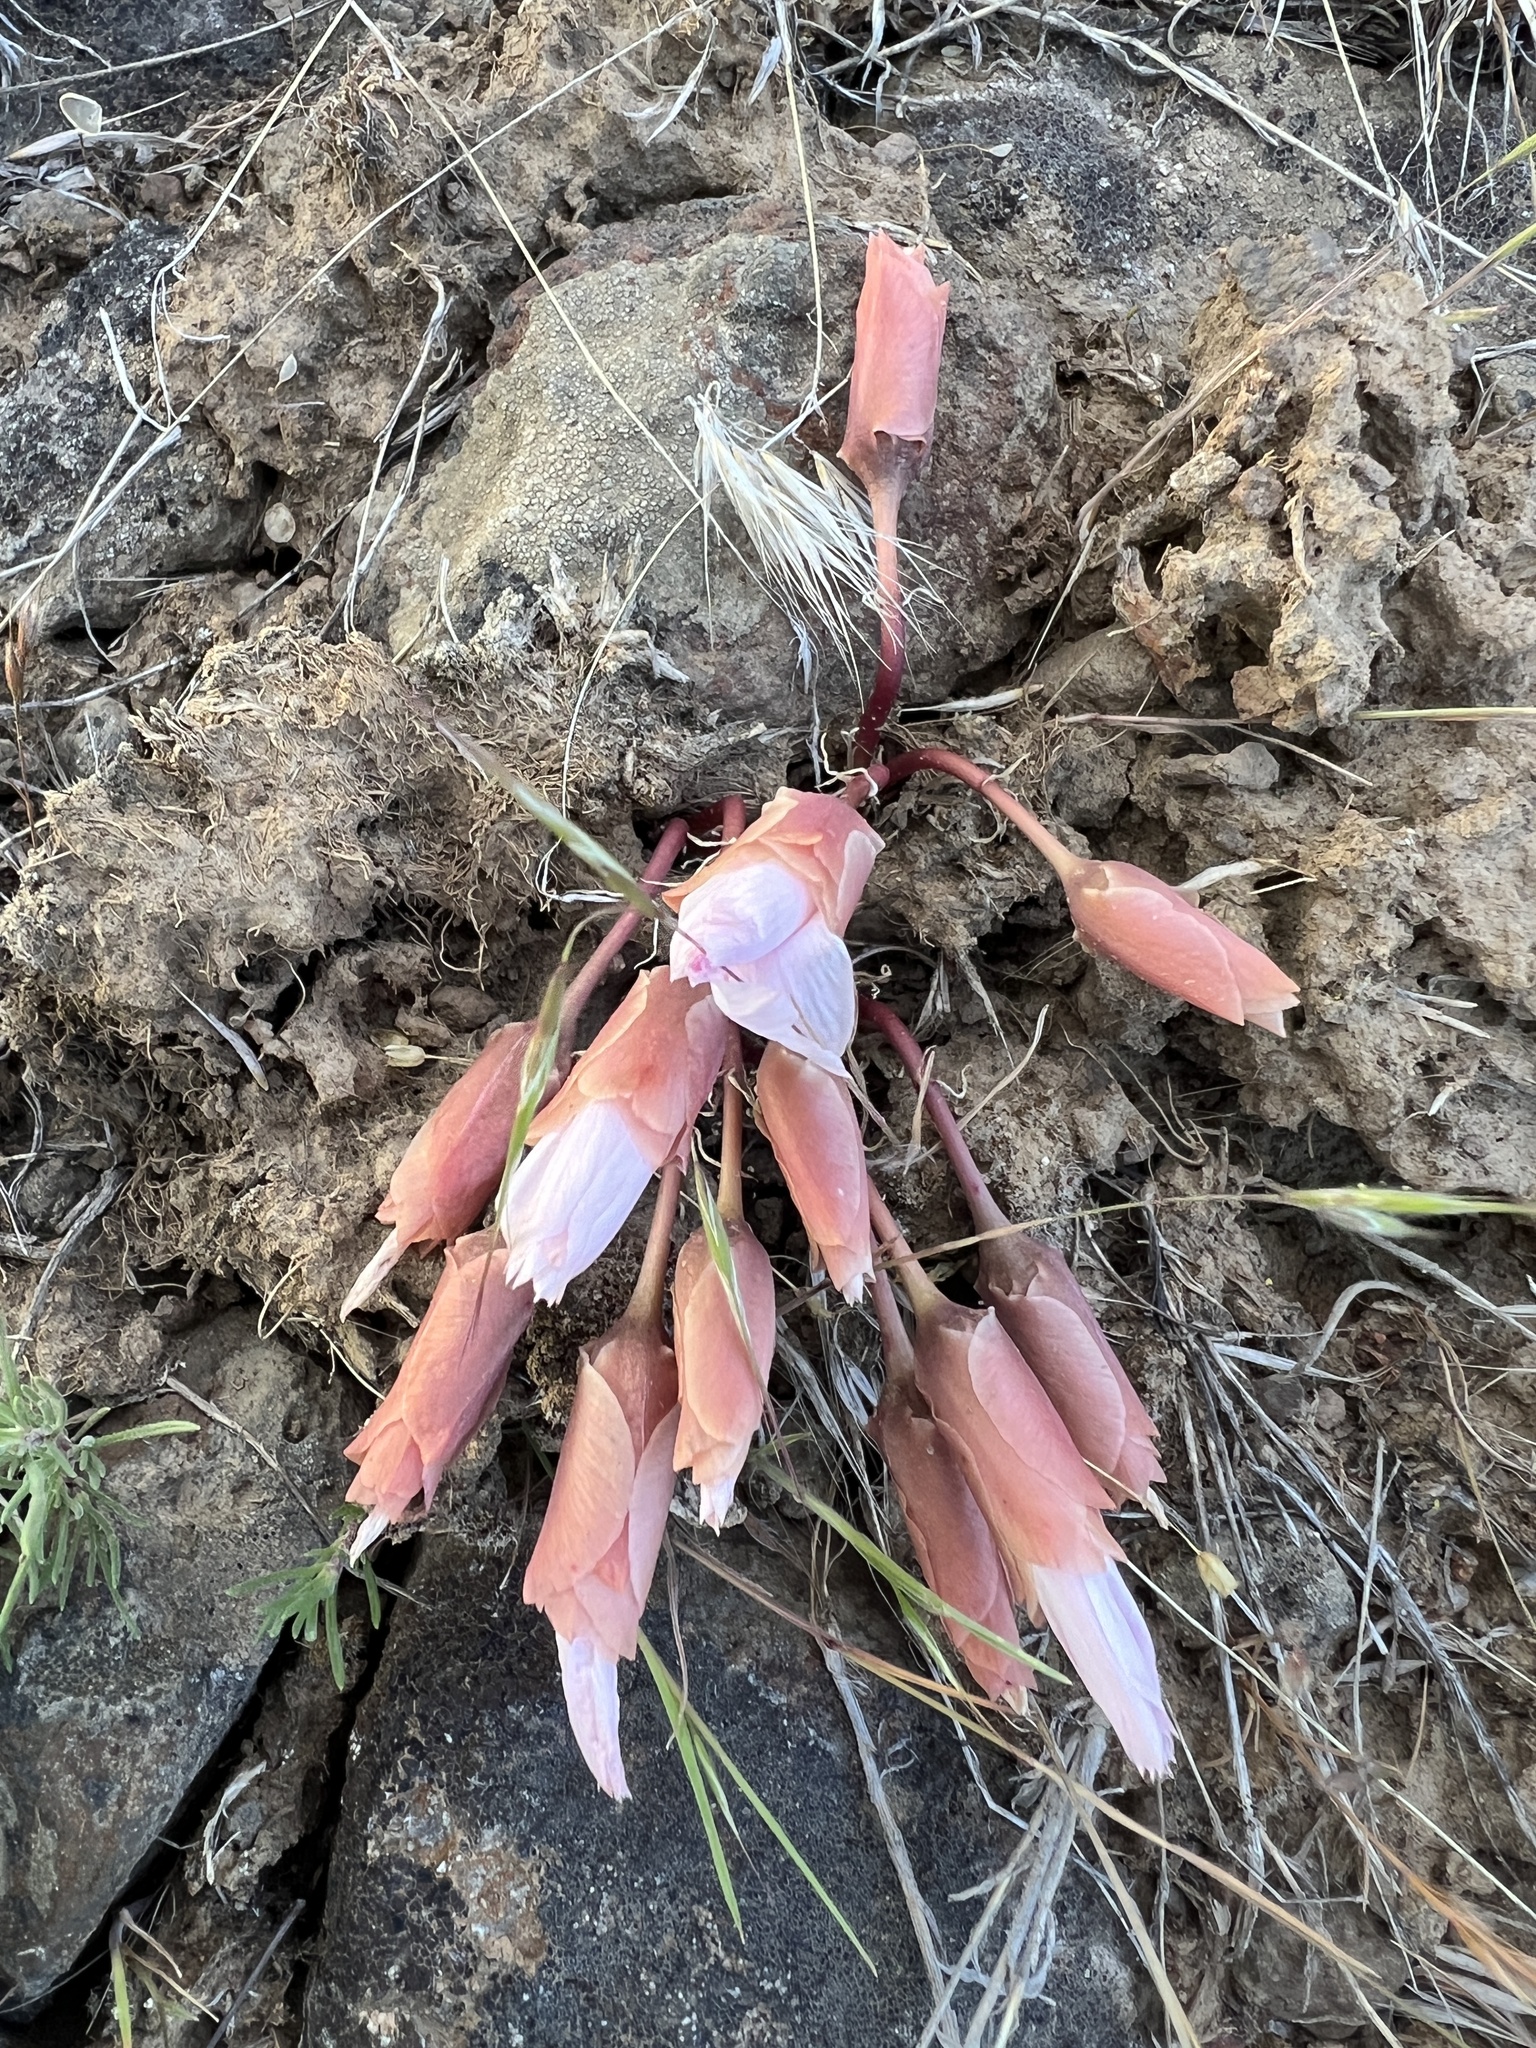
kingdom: Plantae
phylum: Tracheophyta
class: Magnoliopsida
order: Caryophyllales
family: Montiaceae
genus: Lewisia
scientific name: Lewisia rediviva
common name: Bitter-root
